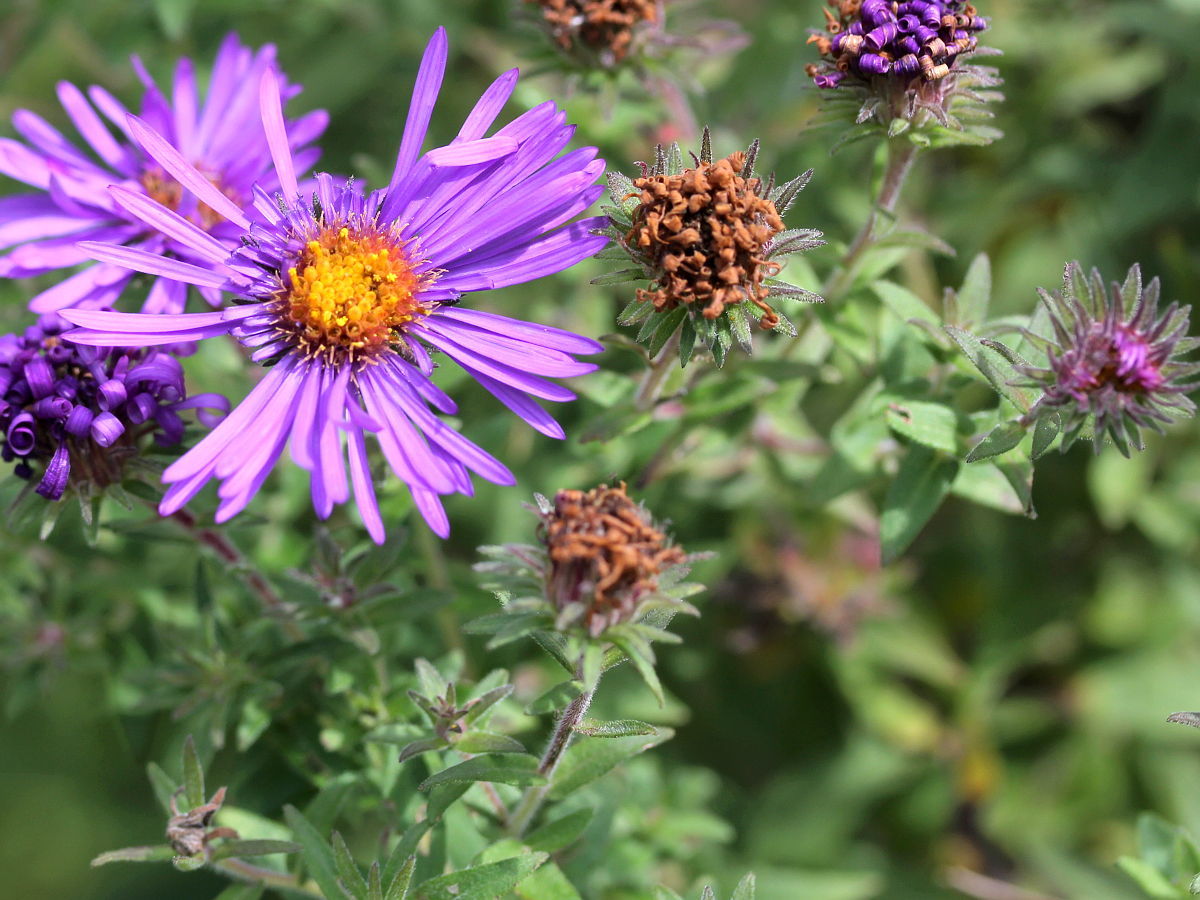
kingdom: Plantae
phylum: Tracheophyta
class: Magnoliopsida
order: Asterales
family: Asteraceae
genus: Symphyotrichum
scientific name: Symphyotrichum novae-angliae
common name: Michaelmas daisy
